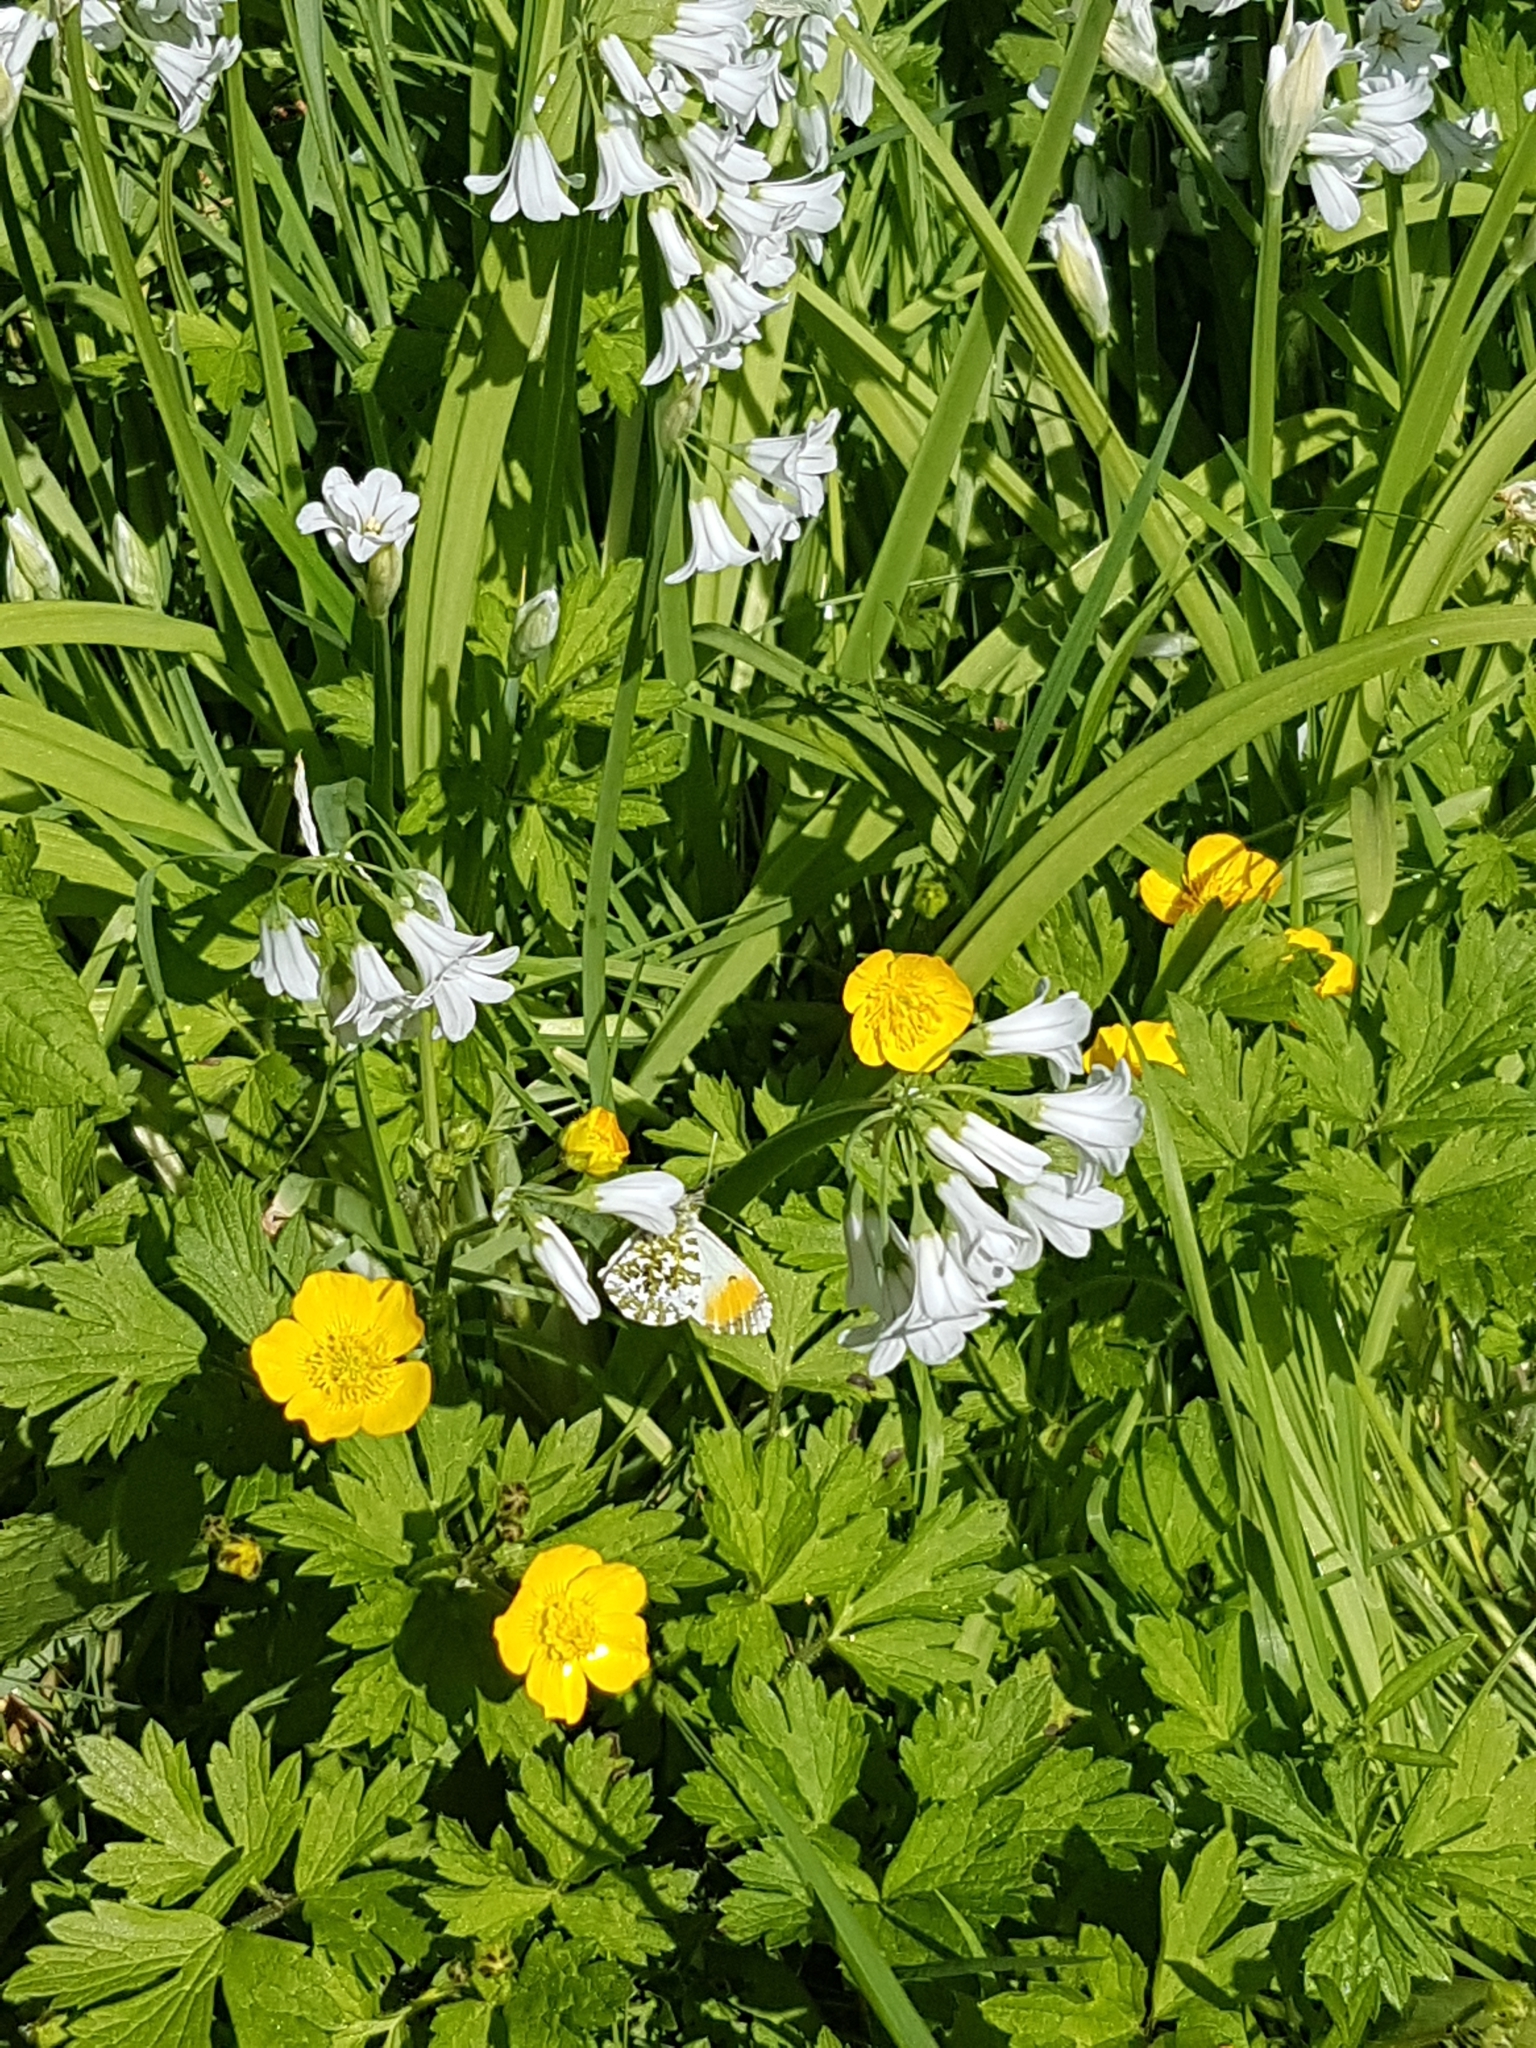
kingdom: Animalia
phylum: Arthropoda
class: Insecta
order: Lepidoptera
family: Pieridae
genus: Anthocharis
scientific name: Anthocharis cardamines
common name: Orange-tip
